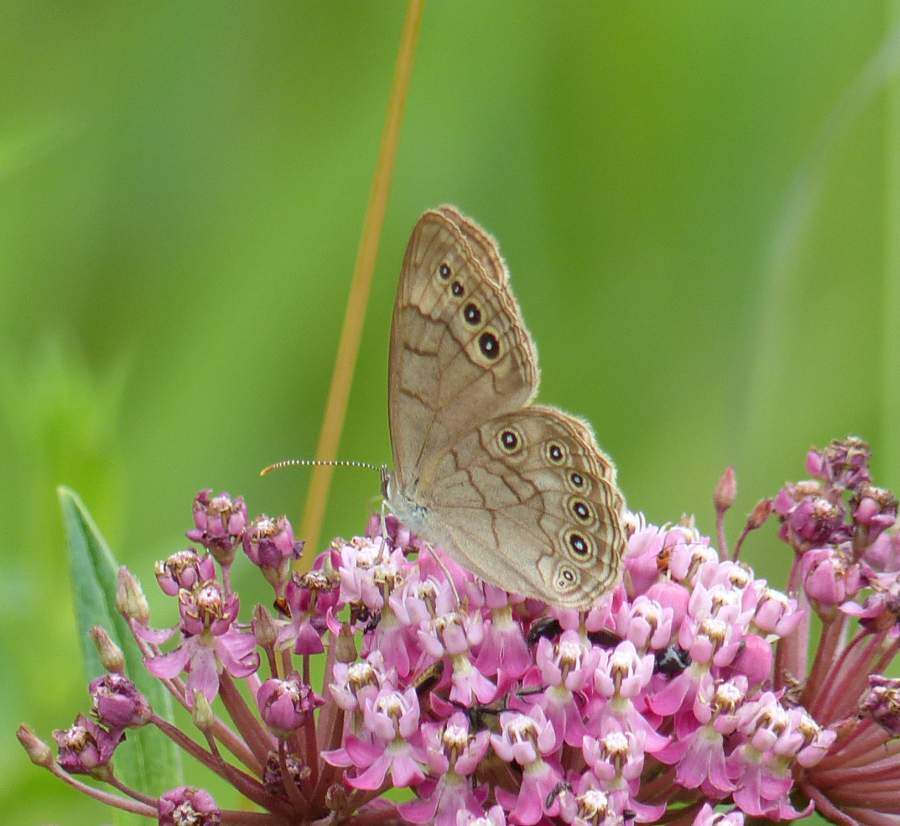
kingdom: Animalia
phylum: Arthropoda
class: Insecta
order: Lepidoptera
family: Nymphalidae
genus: Lethe
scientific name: Lethe eurydice
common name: Eyed brown
